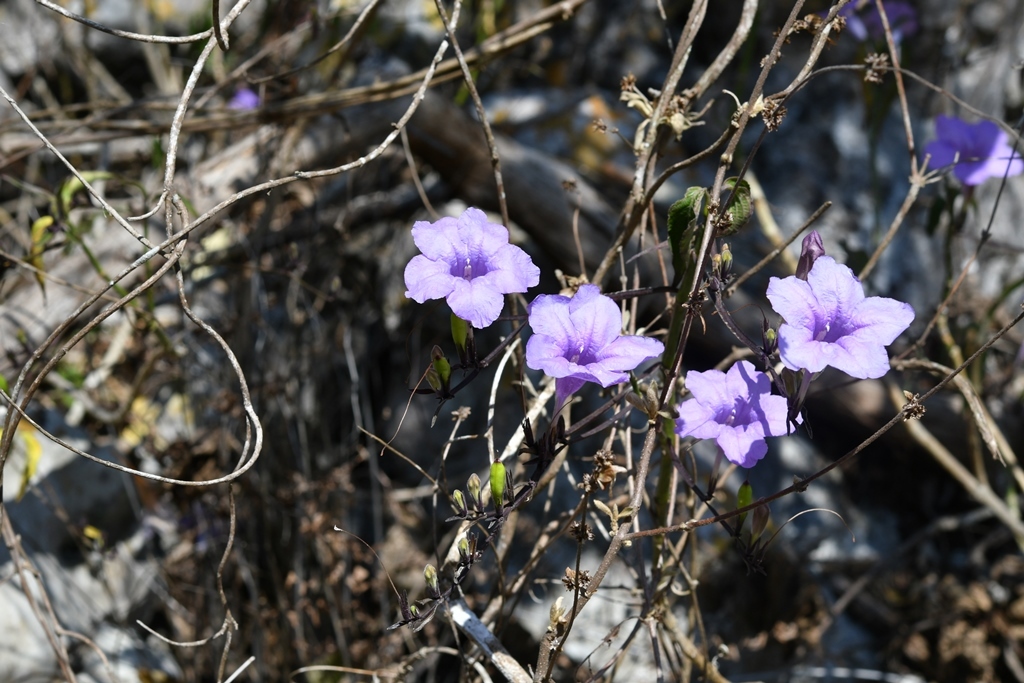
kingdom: Plantae
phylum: Tracheophyta
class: Magnoliopsida
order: Lamiales
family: Acanthaceae
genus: Ruellia
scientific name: Ruellia breedlovei
